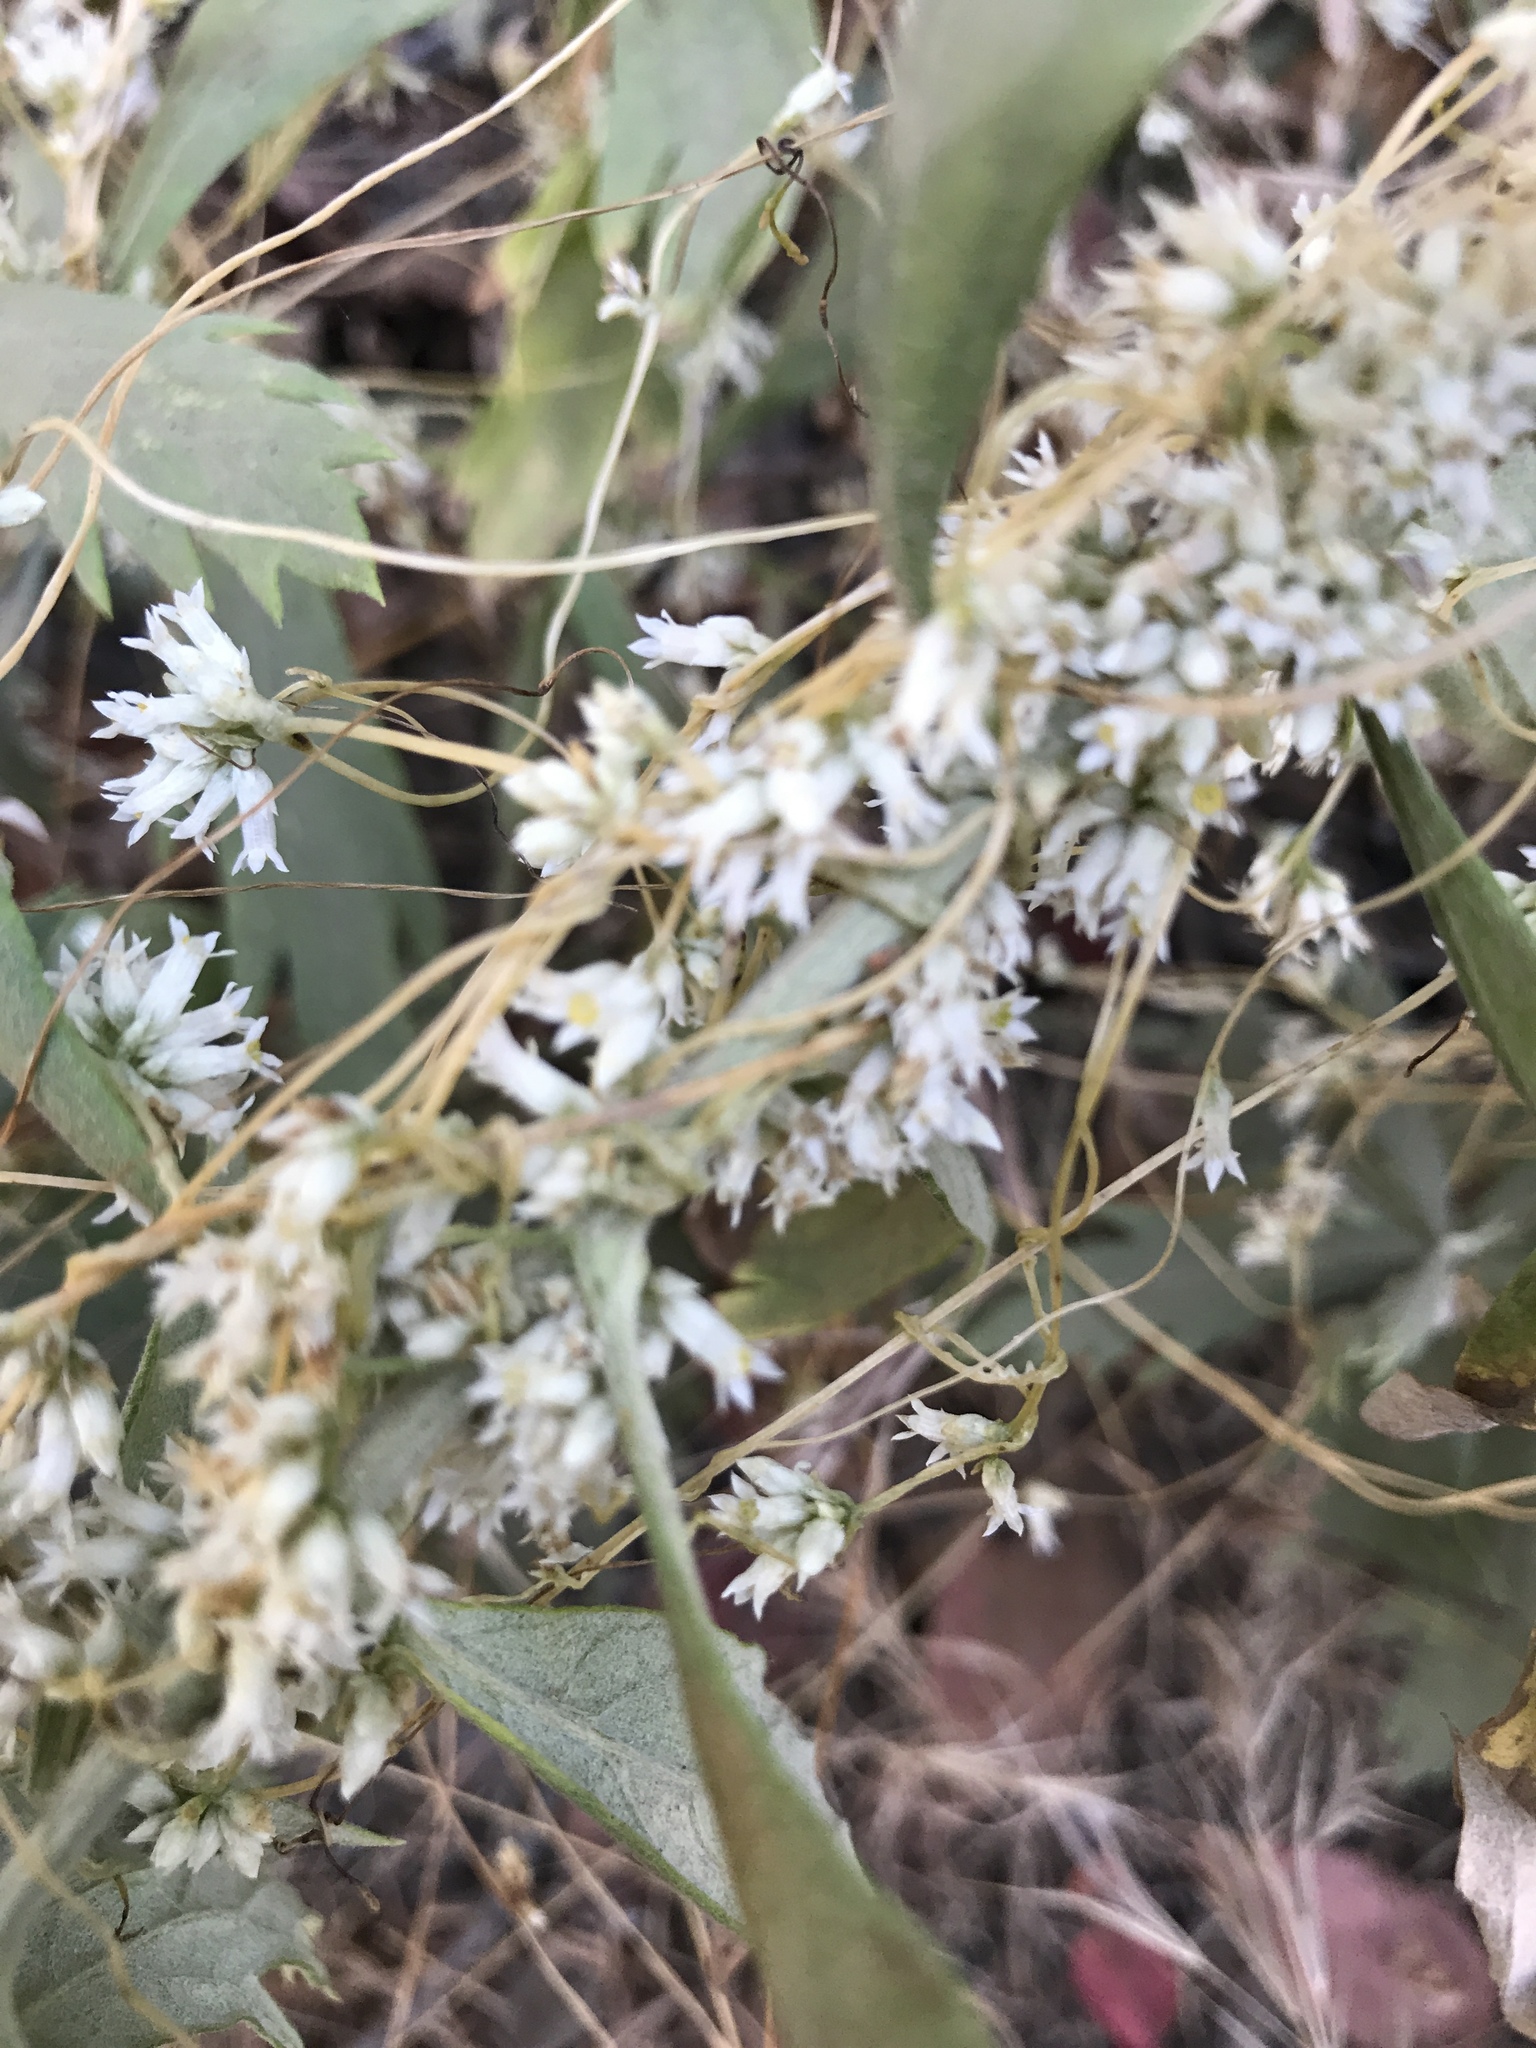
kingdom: Plantae
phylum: Tracheophyta
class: Magnoliopsida
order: Solanales
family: Convolvulaceae
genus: Cuscuta
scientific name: Cuscuta subinclusa
